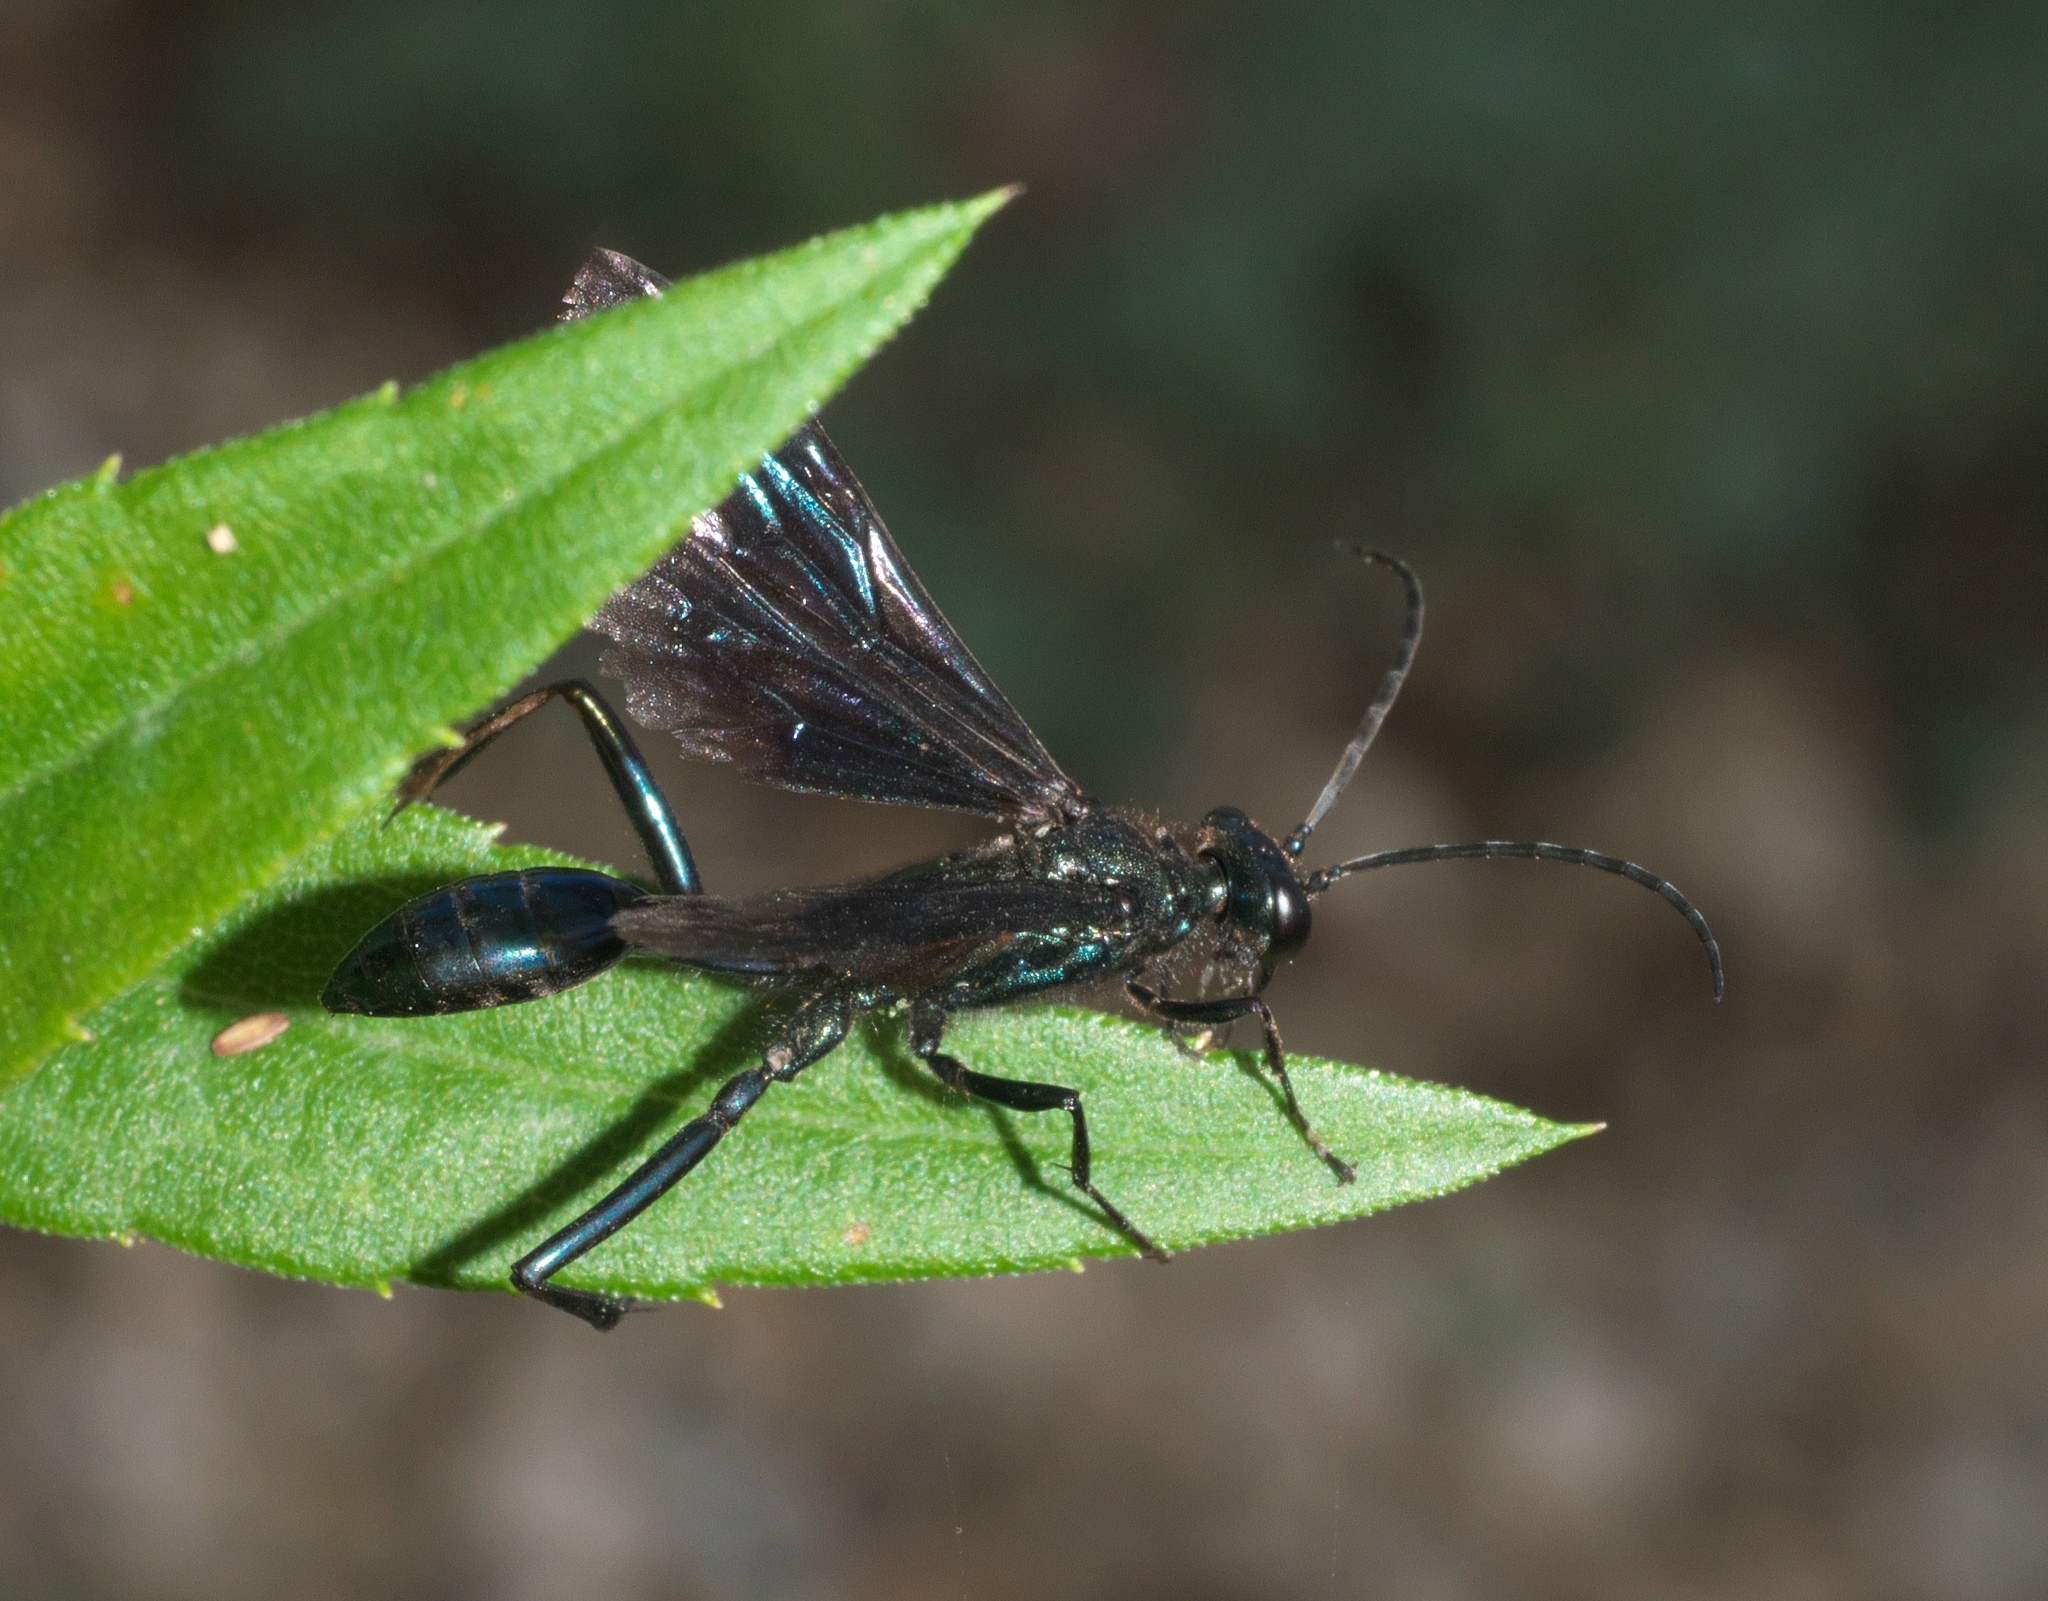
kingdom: Animalia
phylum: Arthropoda
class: Insecta
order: Hymenoptera
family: Sphecidae
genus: Chalybion
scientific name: Chalybion californicum
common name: Mud dauber
